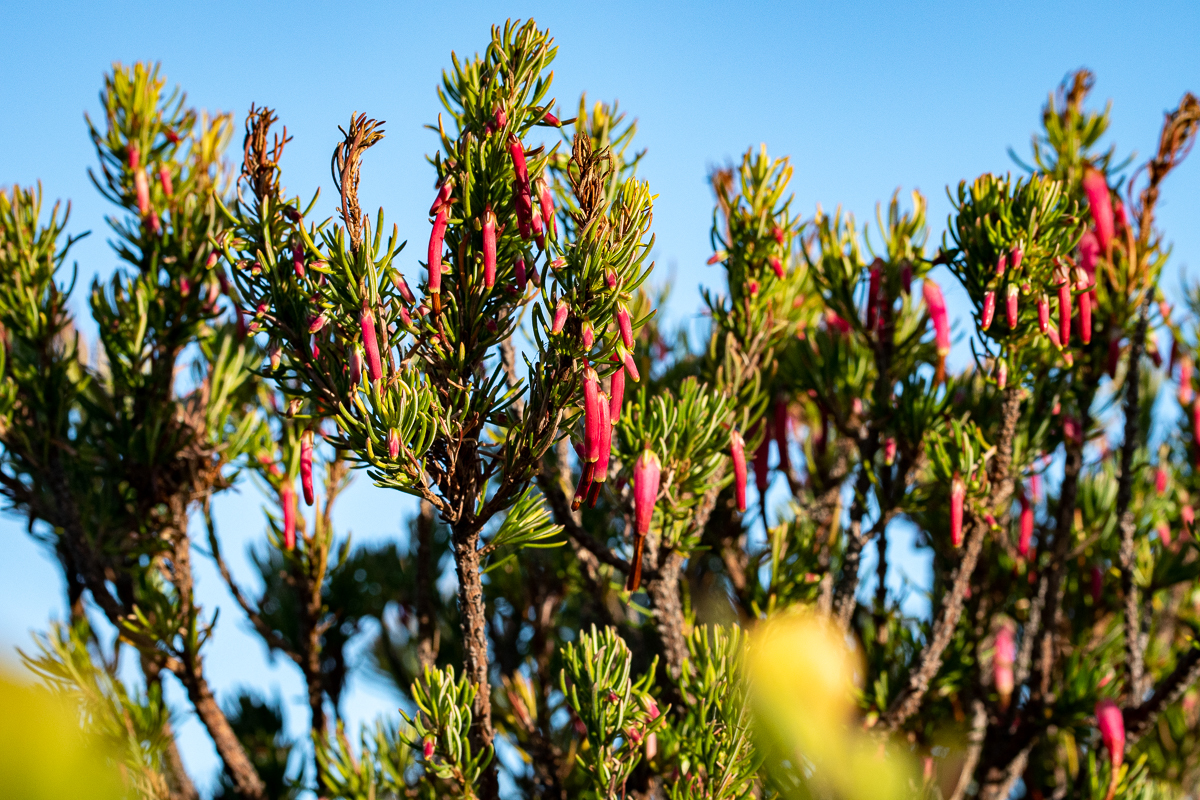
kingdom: Plantae
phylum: Tracheophyta
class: Magnoliopsida
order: Ericales
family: Ericaceae
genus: Erica
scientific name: Erica plukenetii
